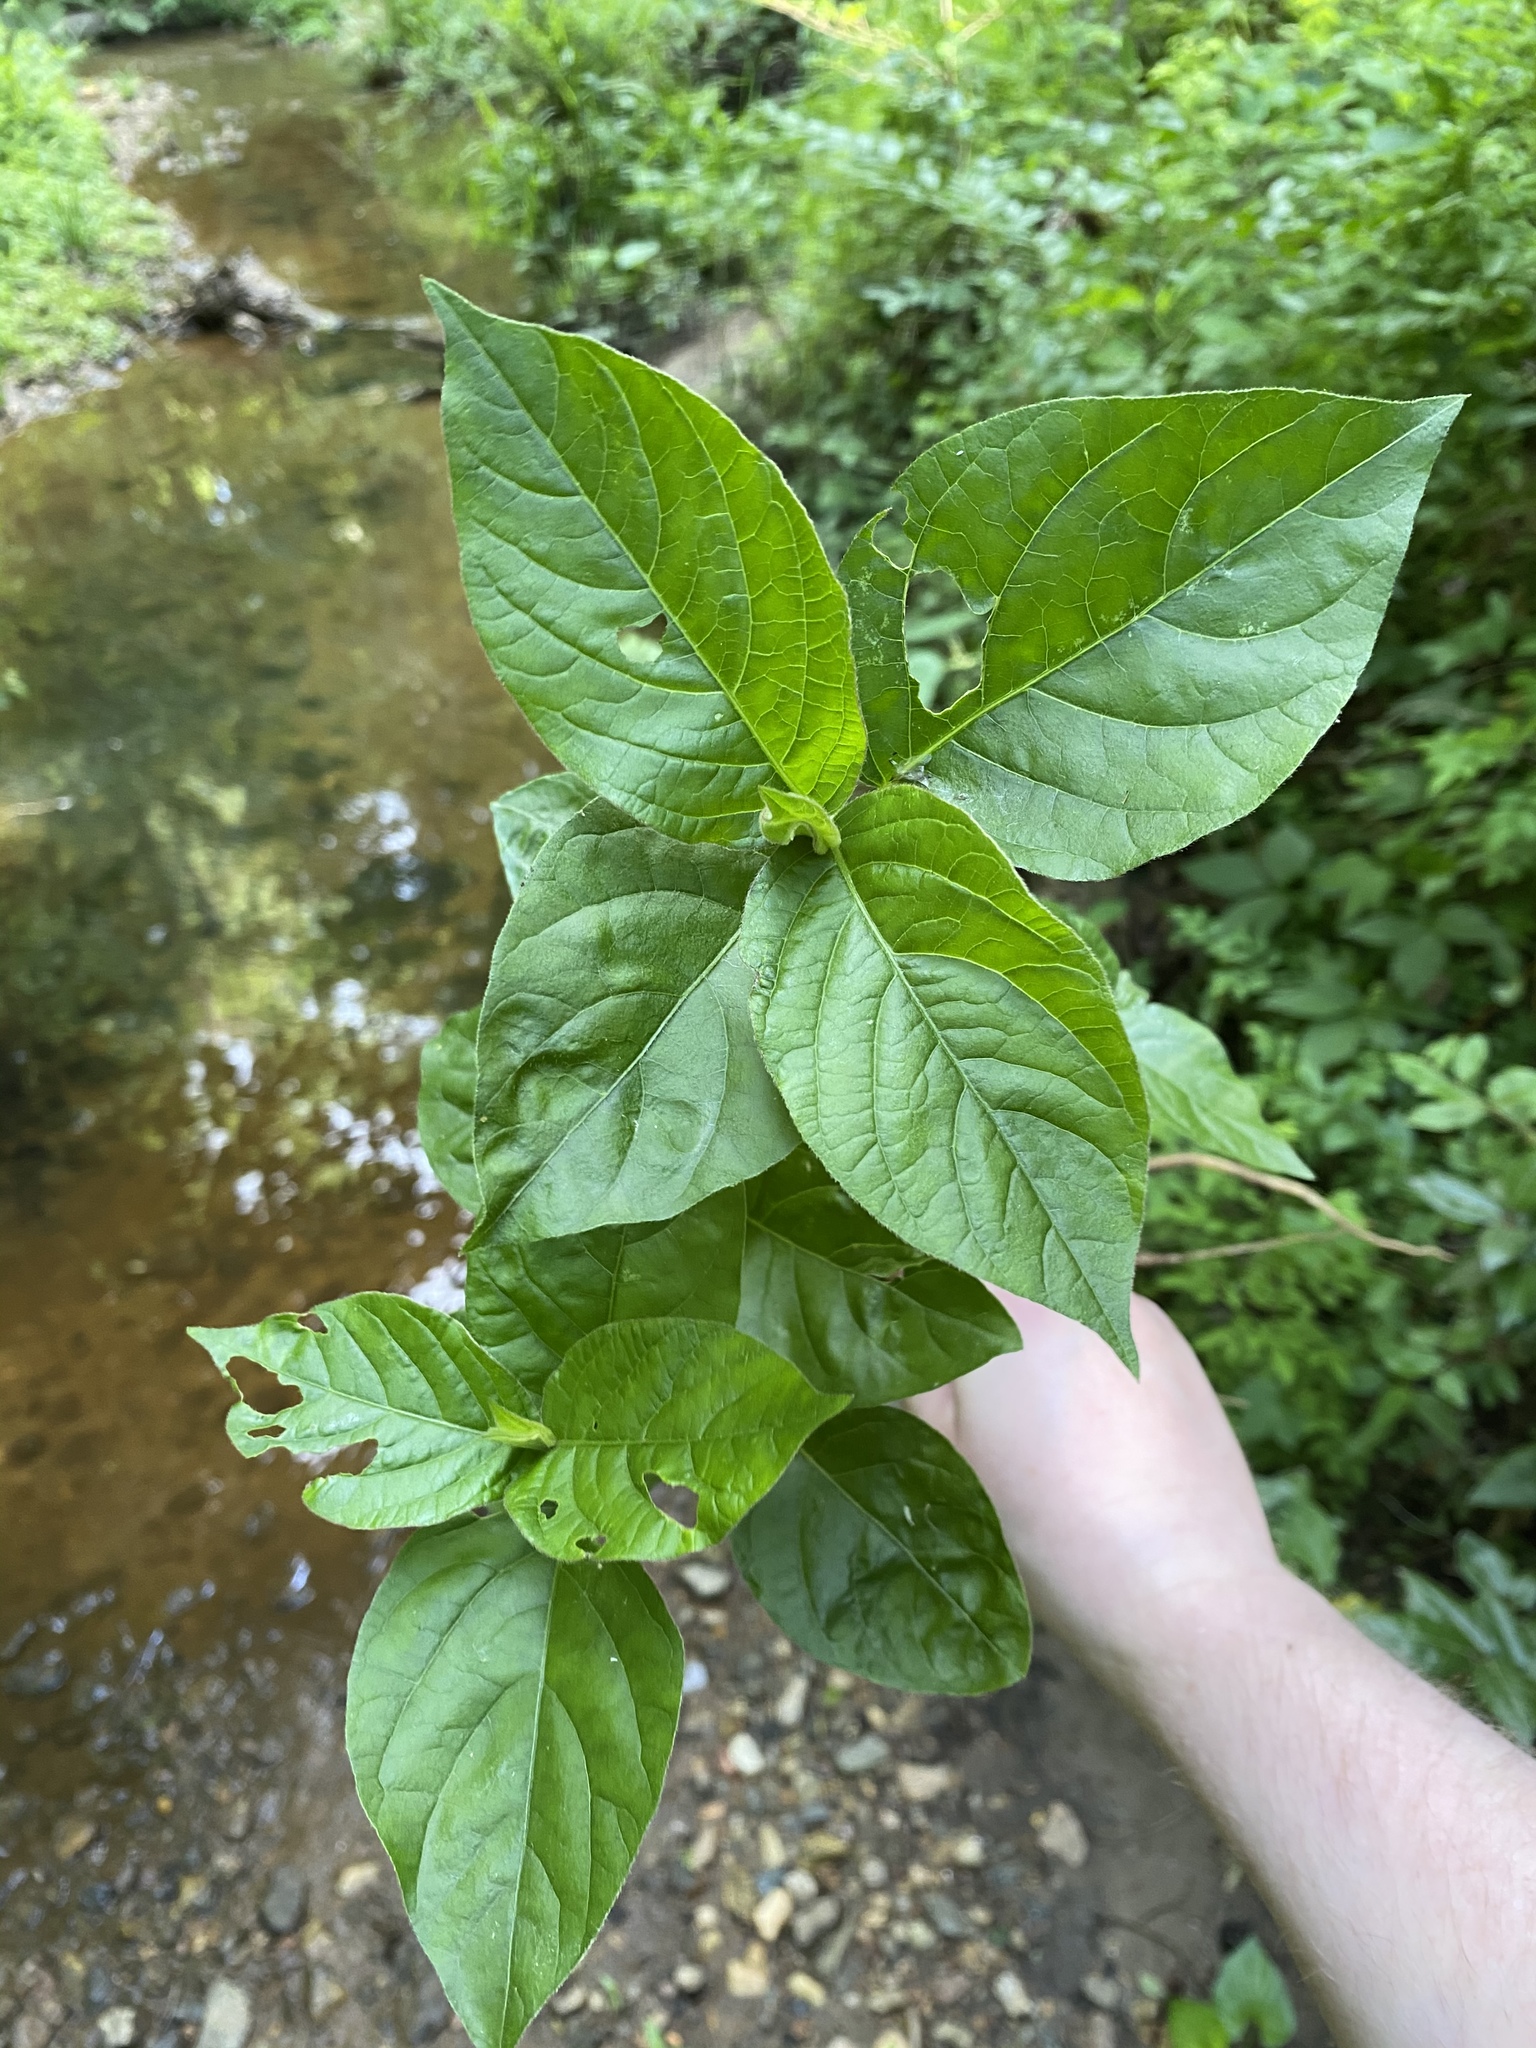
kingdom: Plantae
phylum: Tracheophyta
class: Magnoliopsida
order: Caryophyllales
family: Amaranthaceae
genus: Achyranthes
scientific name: Achyranthes bidentata
